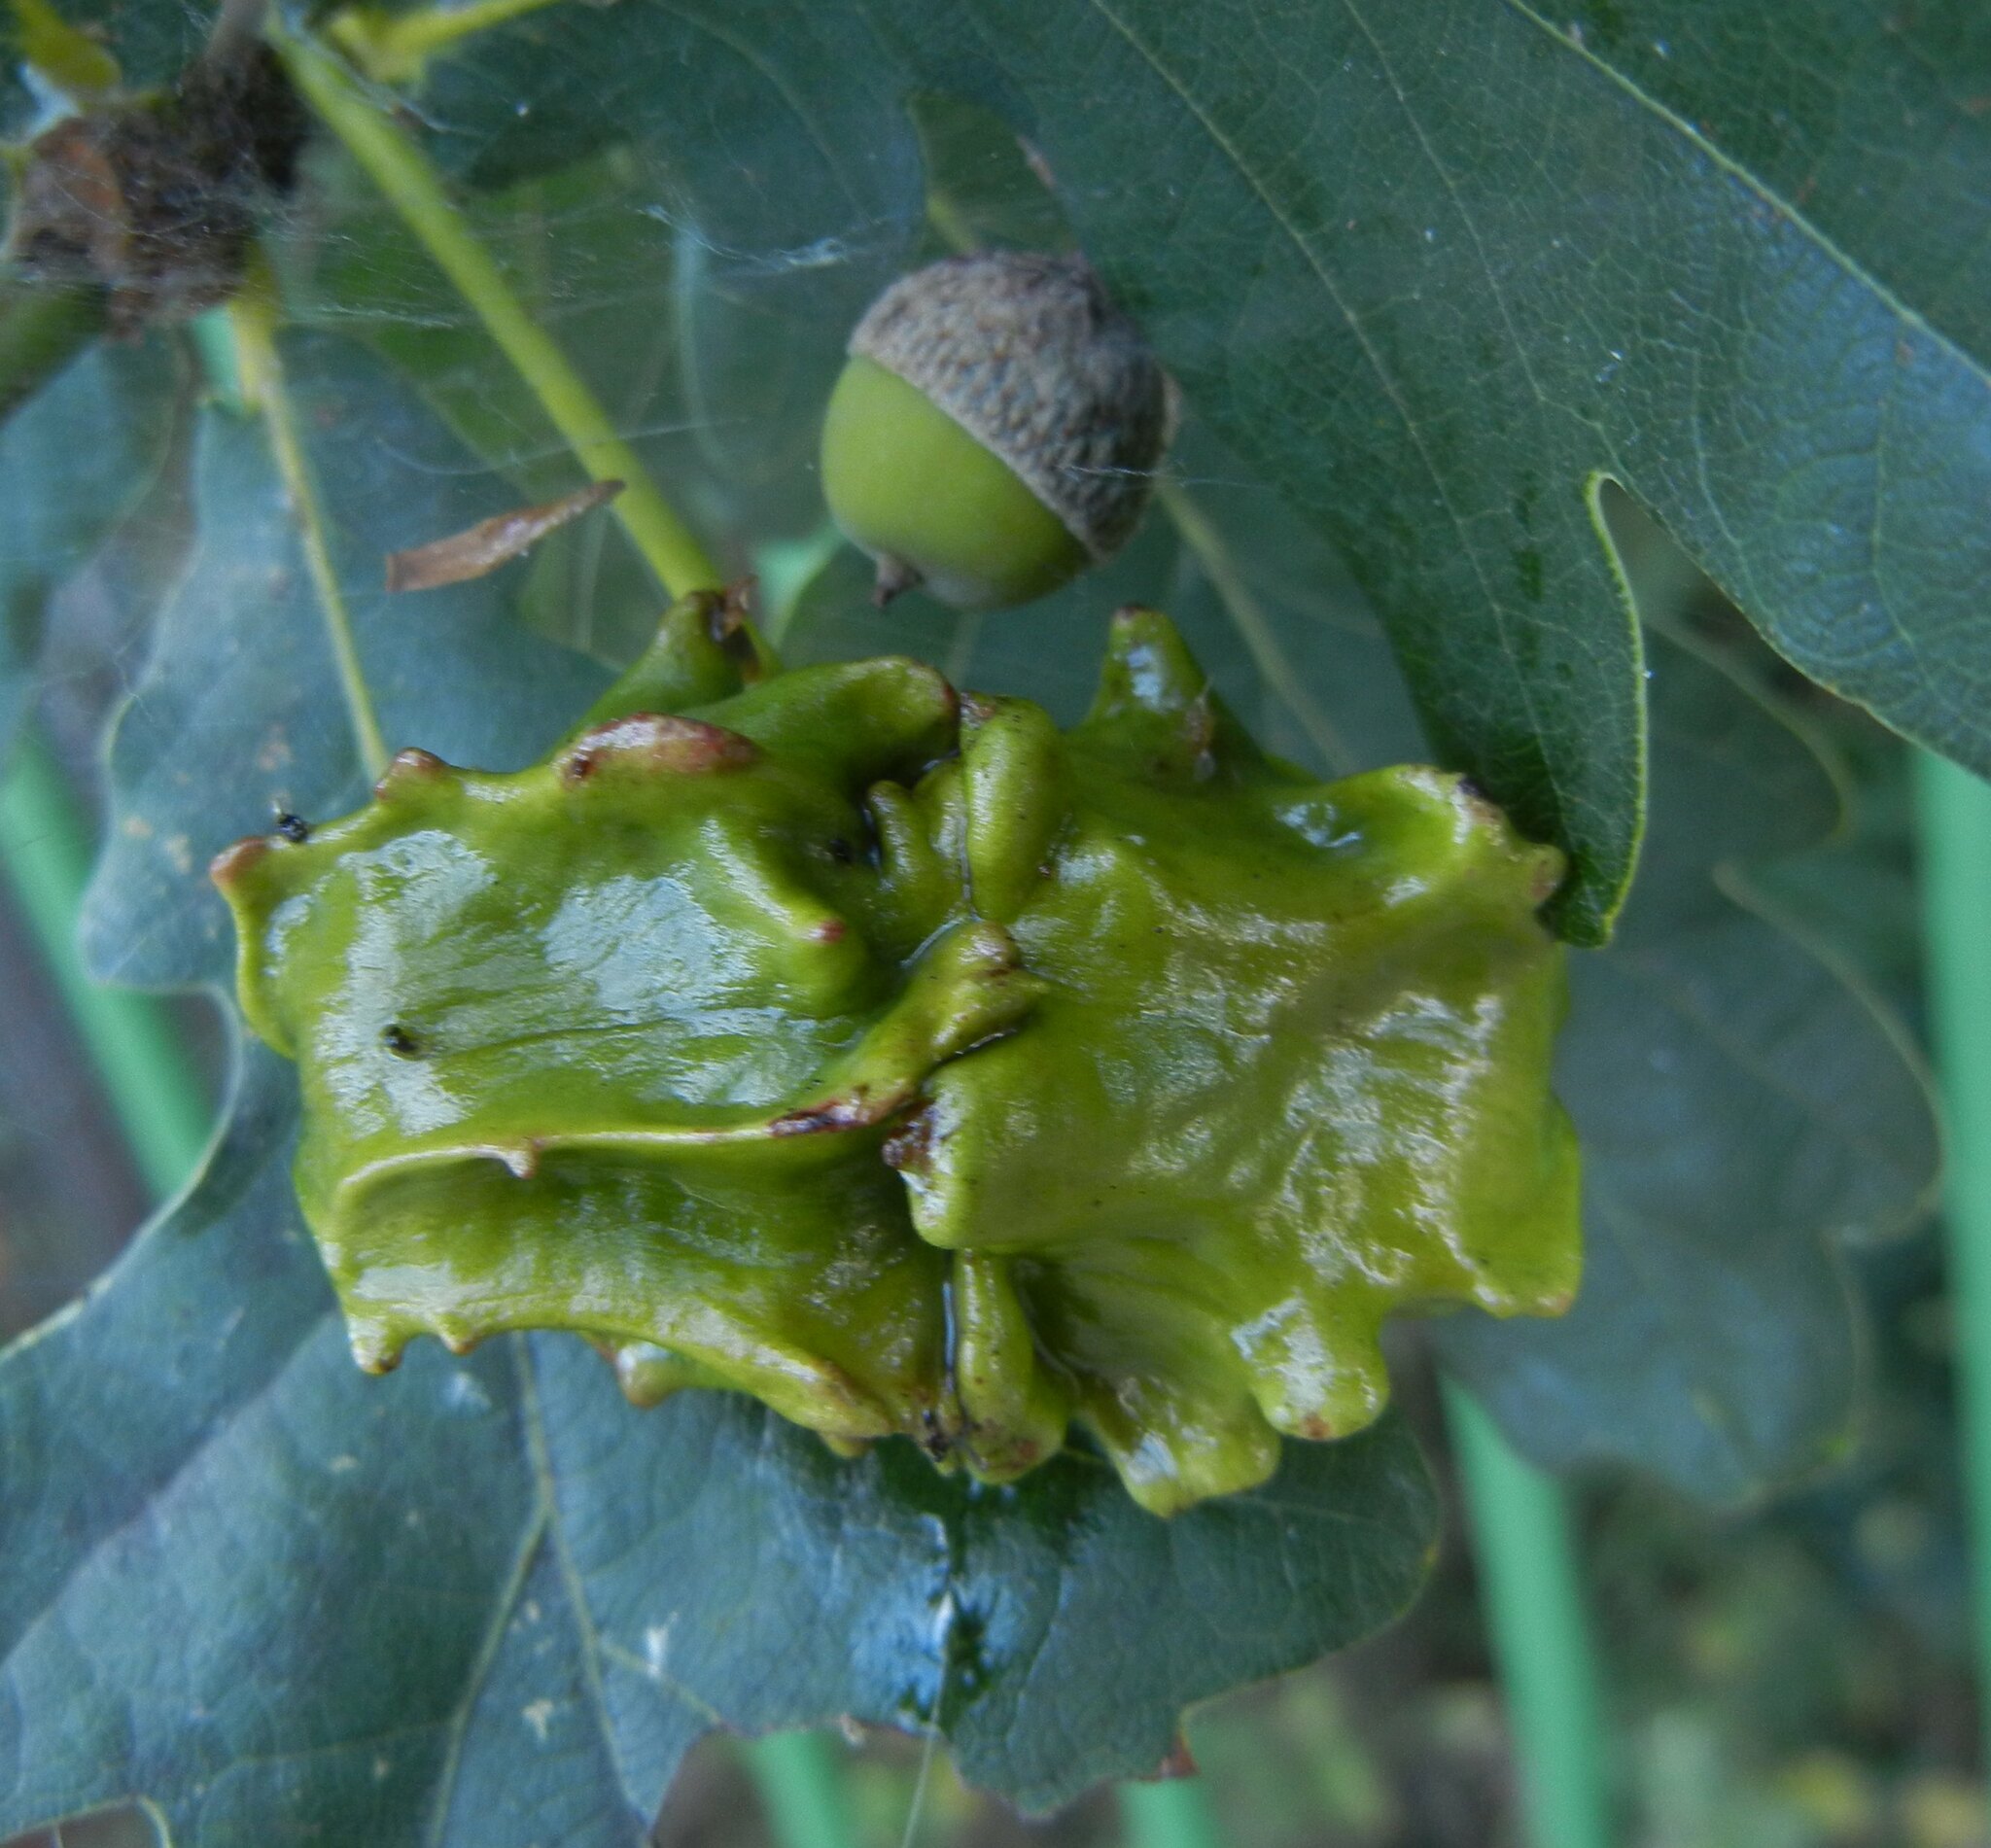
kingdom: Animalia
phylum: Arthropoda
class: Insecta
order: Hymenoptera
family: Cynipidae
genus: Andricus
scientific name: Andricus quercuscalicis
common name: Knopper gall
